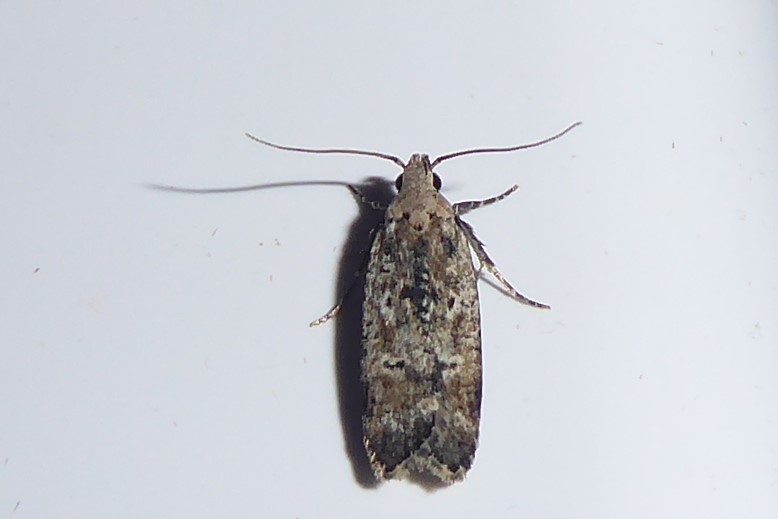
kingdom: Animalia
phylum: Arthropoda
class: Insecta
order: Lepidoptera
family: Gelechiidae
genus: Anisoplaca
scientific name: Anisoplaca achyrota
